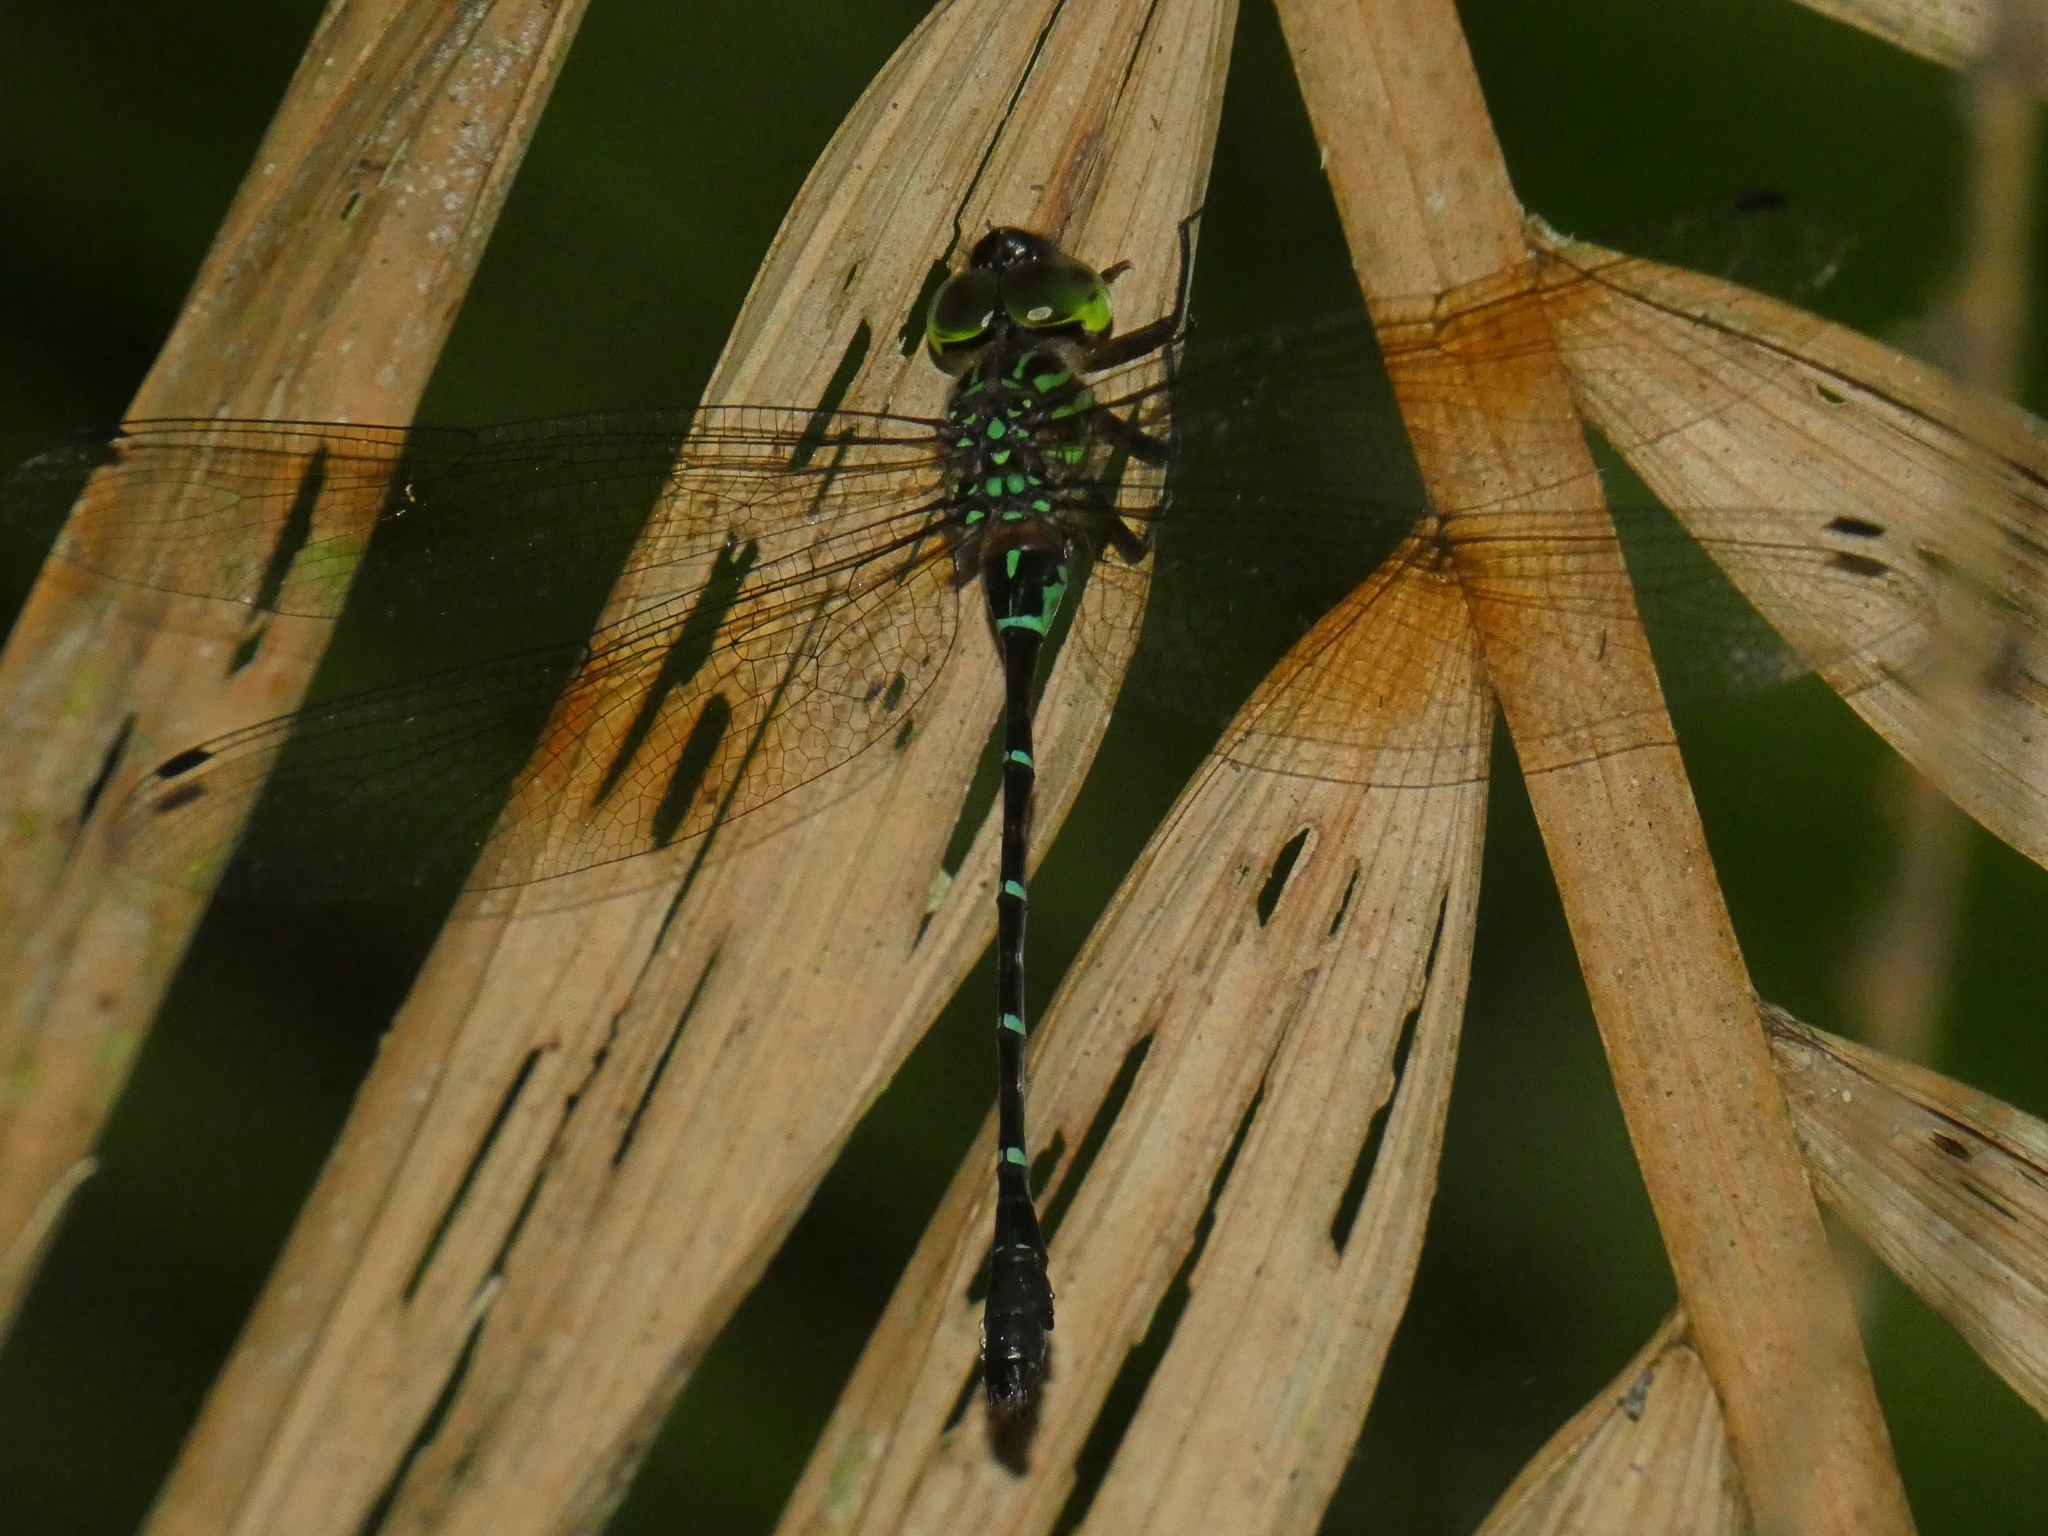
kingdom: Animalia
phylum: Arthropoda
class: Insecta
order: Odonata
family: Aeshnidae
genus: Dromaeschna
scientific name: Dromaeschna forcipata
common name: Green-striped darner
